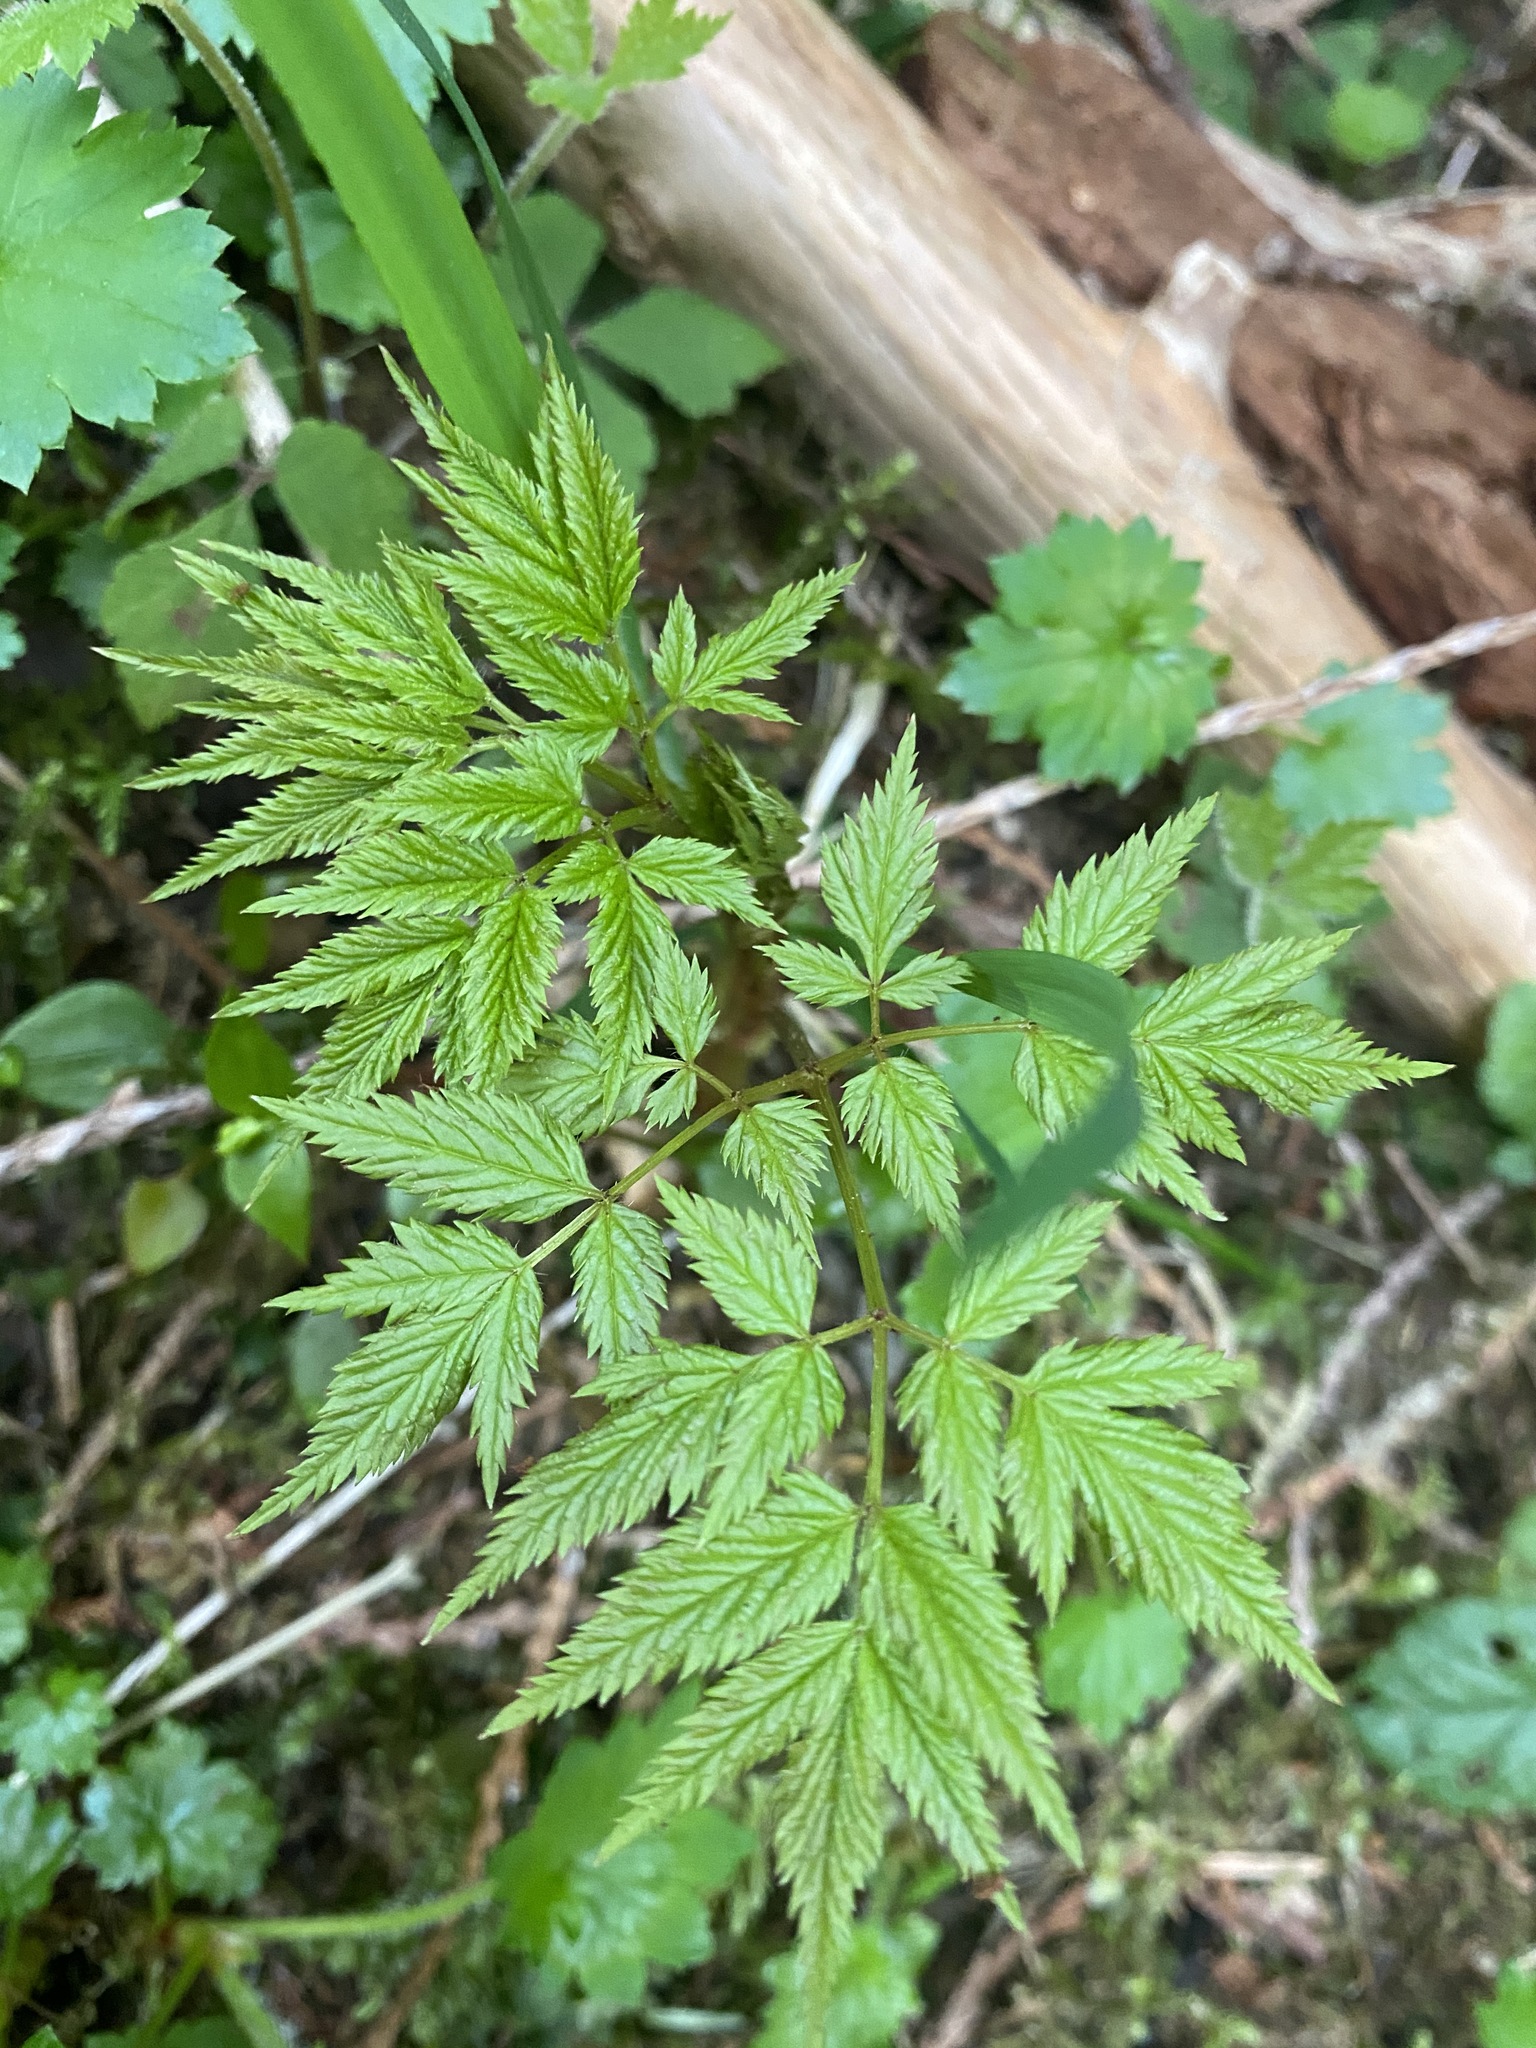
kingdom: Plantae
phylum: Tracheophyta
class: Magnoliopsida
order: Rosales
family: Rosaceae
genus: Aruncus
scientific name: Aruncus dioicus
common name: Buck's-beard
